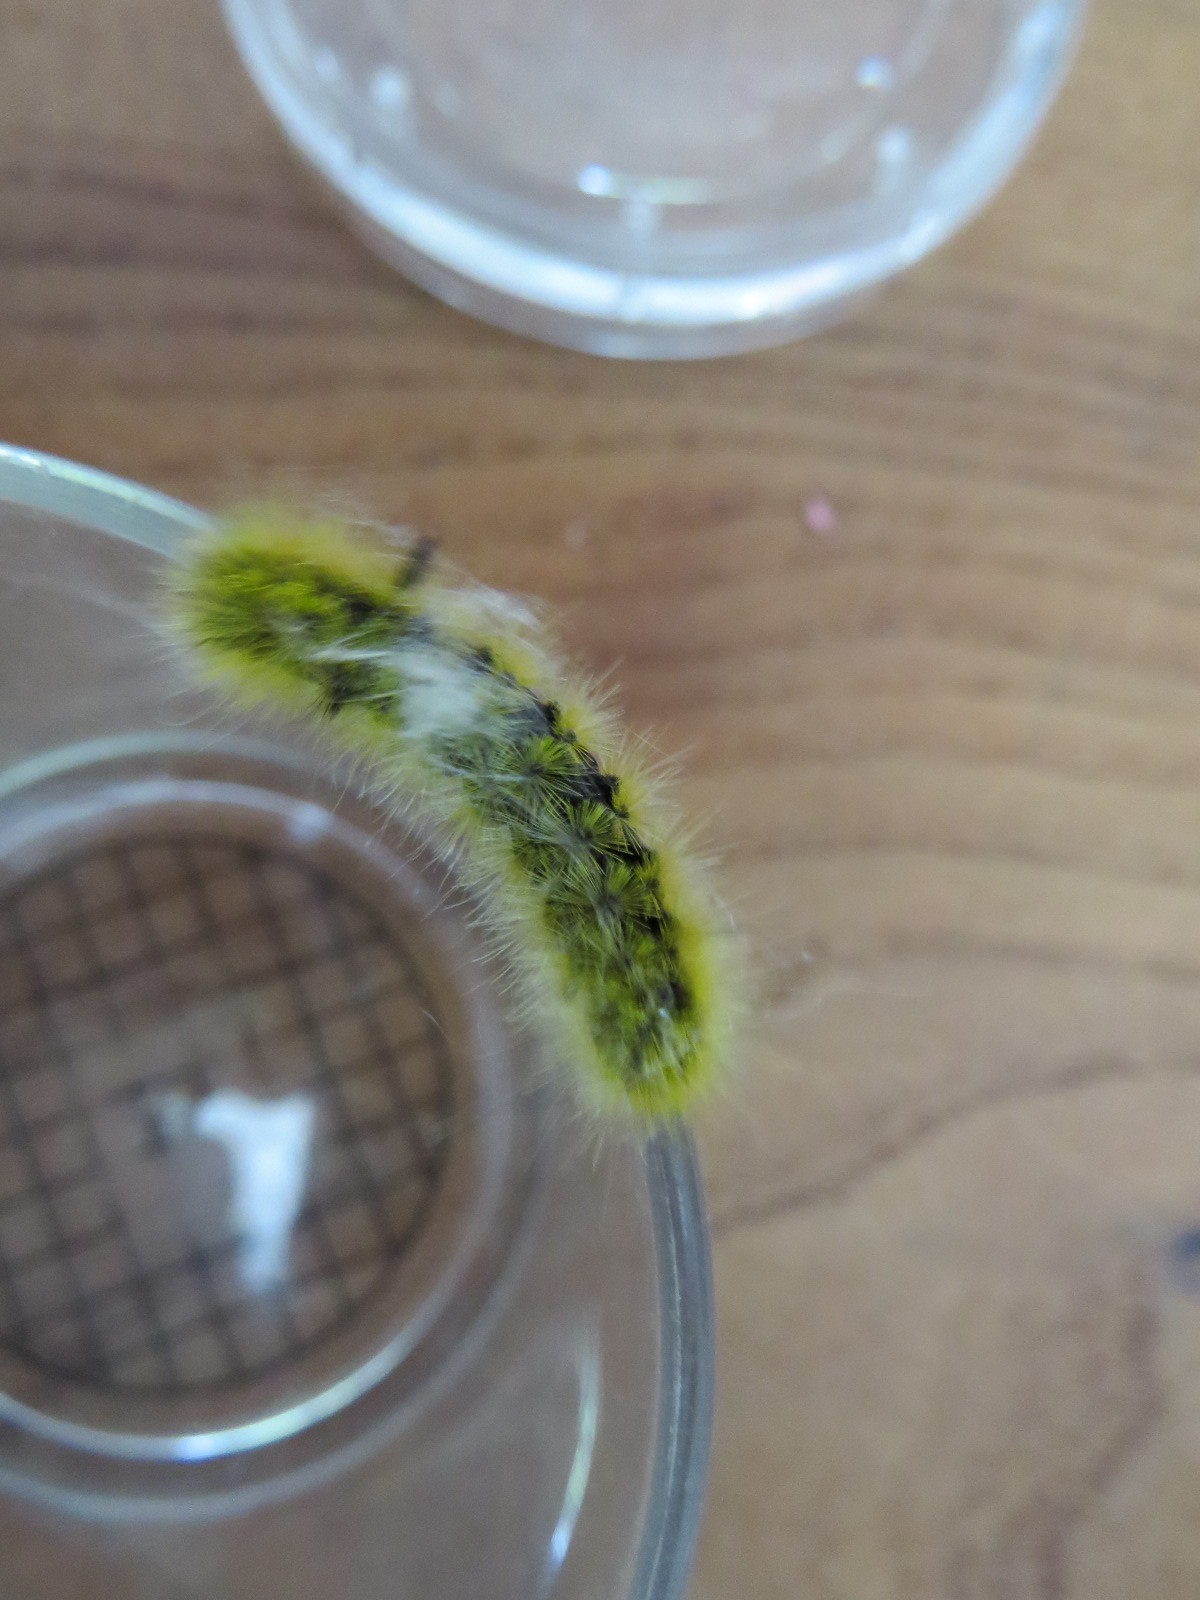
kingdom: Animalia
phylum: Arthropoda
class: Insecta
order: Lepidoptera
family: Erebidae
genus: Lophocampa
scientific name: Lophocampa argentata
